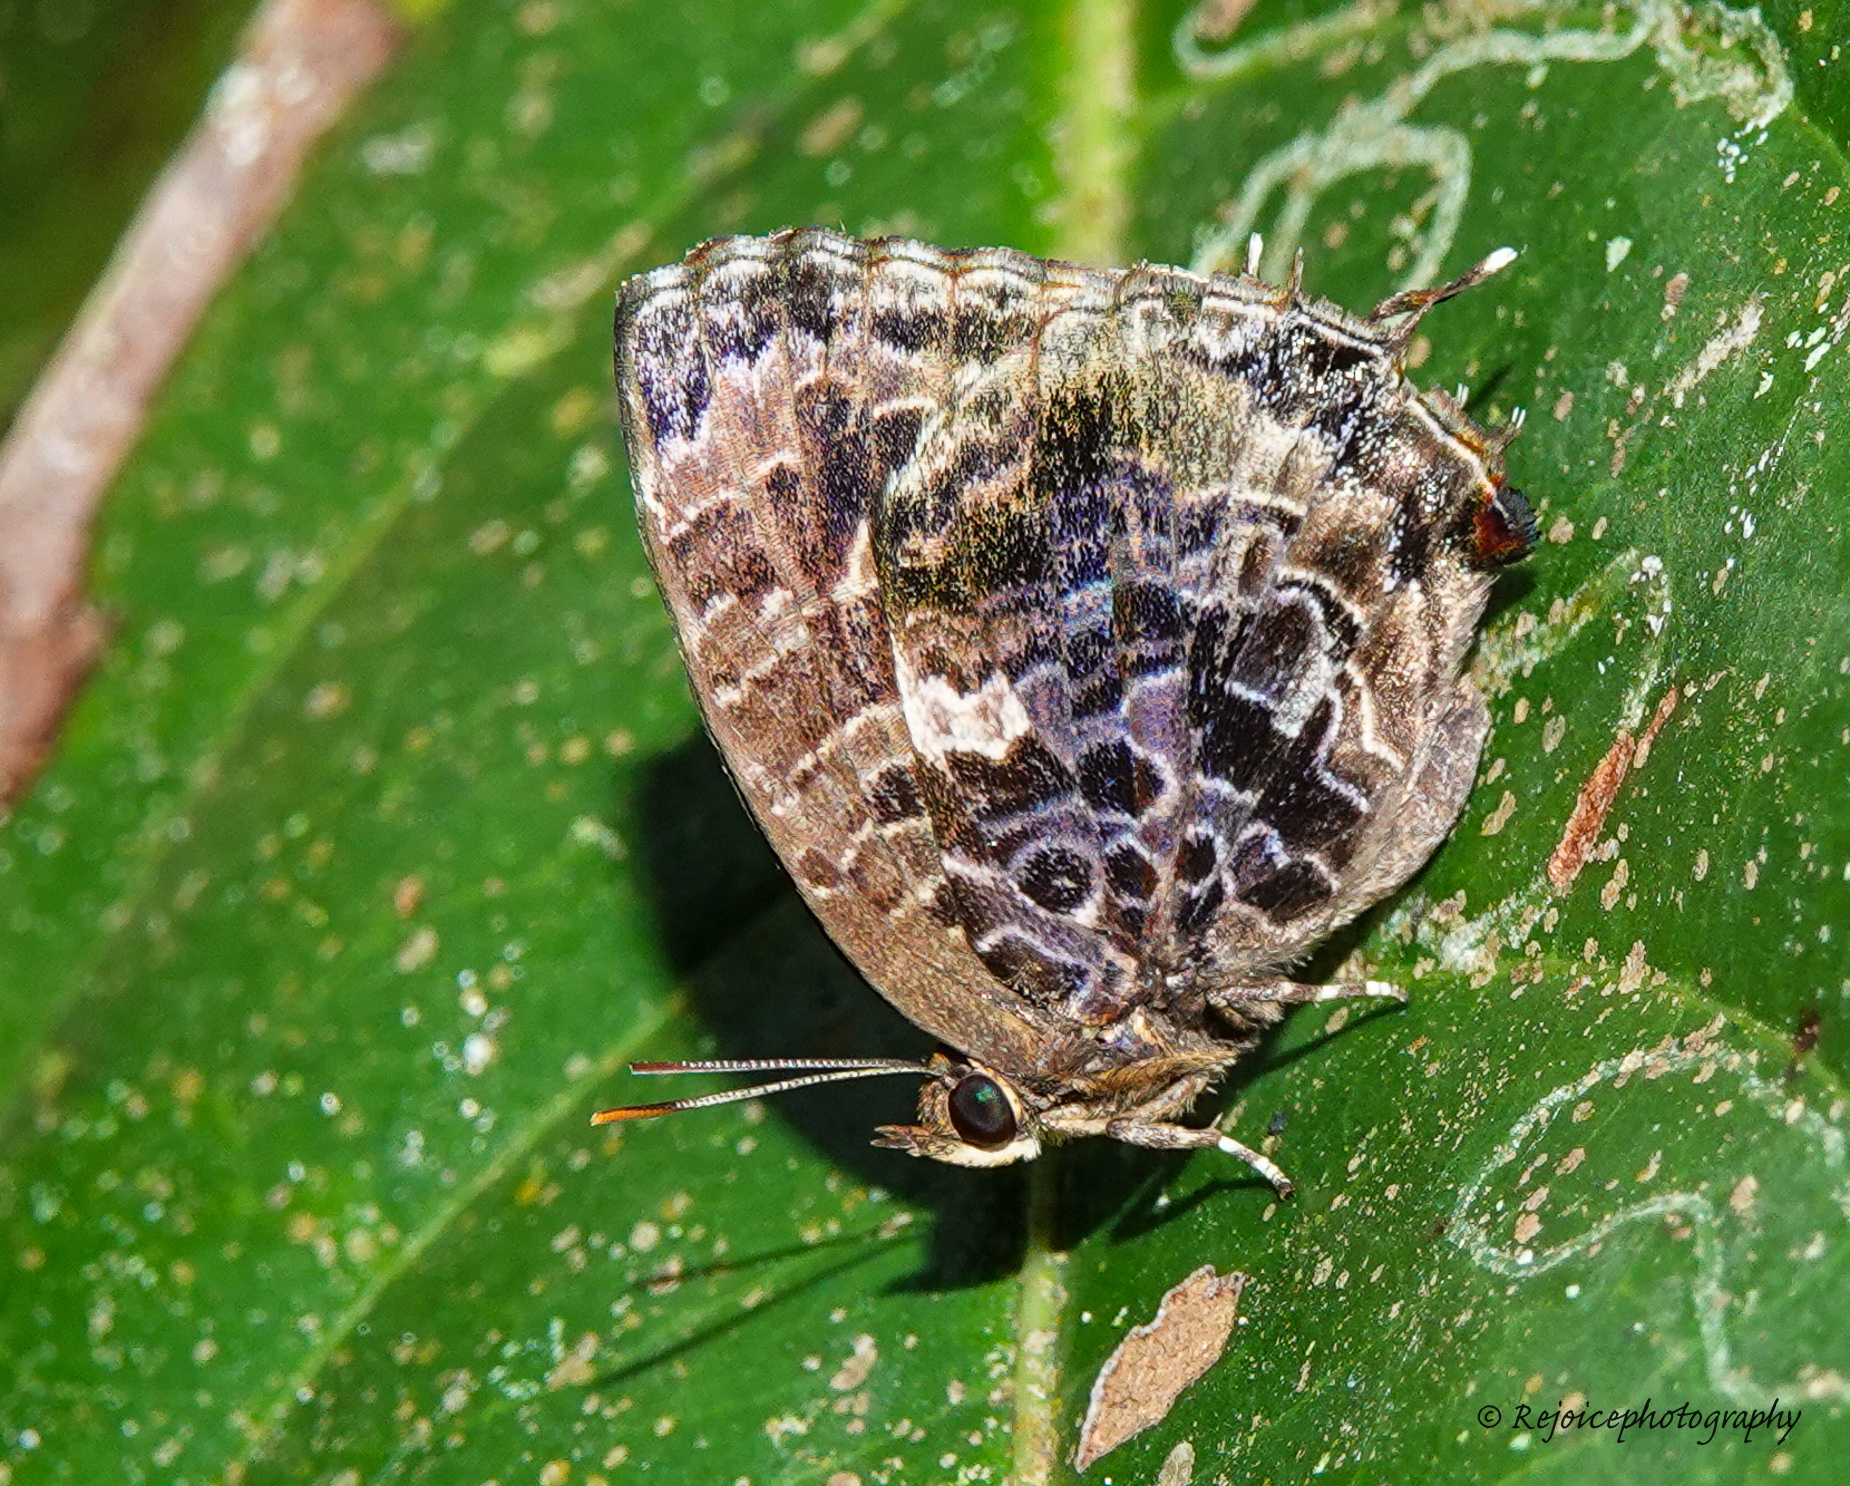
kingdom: Animalia
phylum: Arthropoda
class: Insecta
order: Lepidoptera
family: Lycaenidae
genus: Arhopala
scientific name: Arhopala abseus
